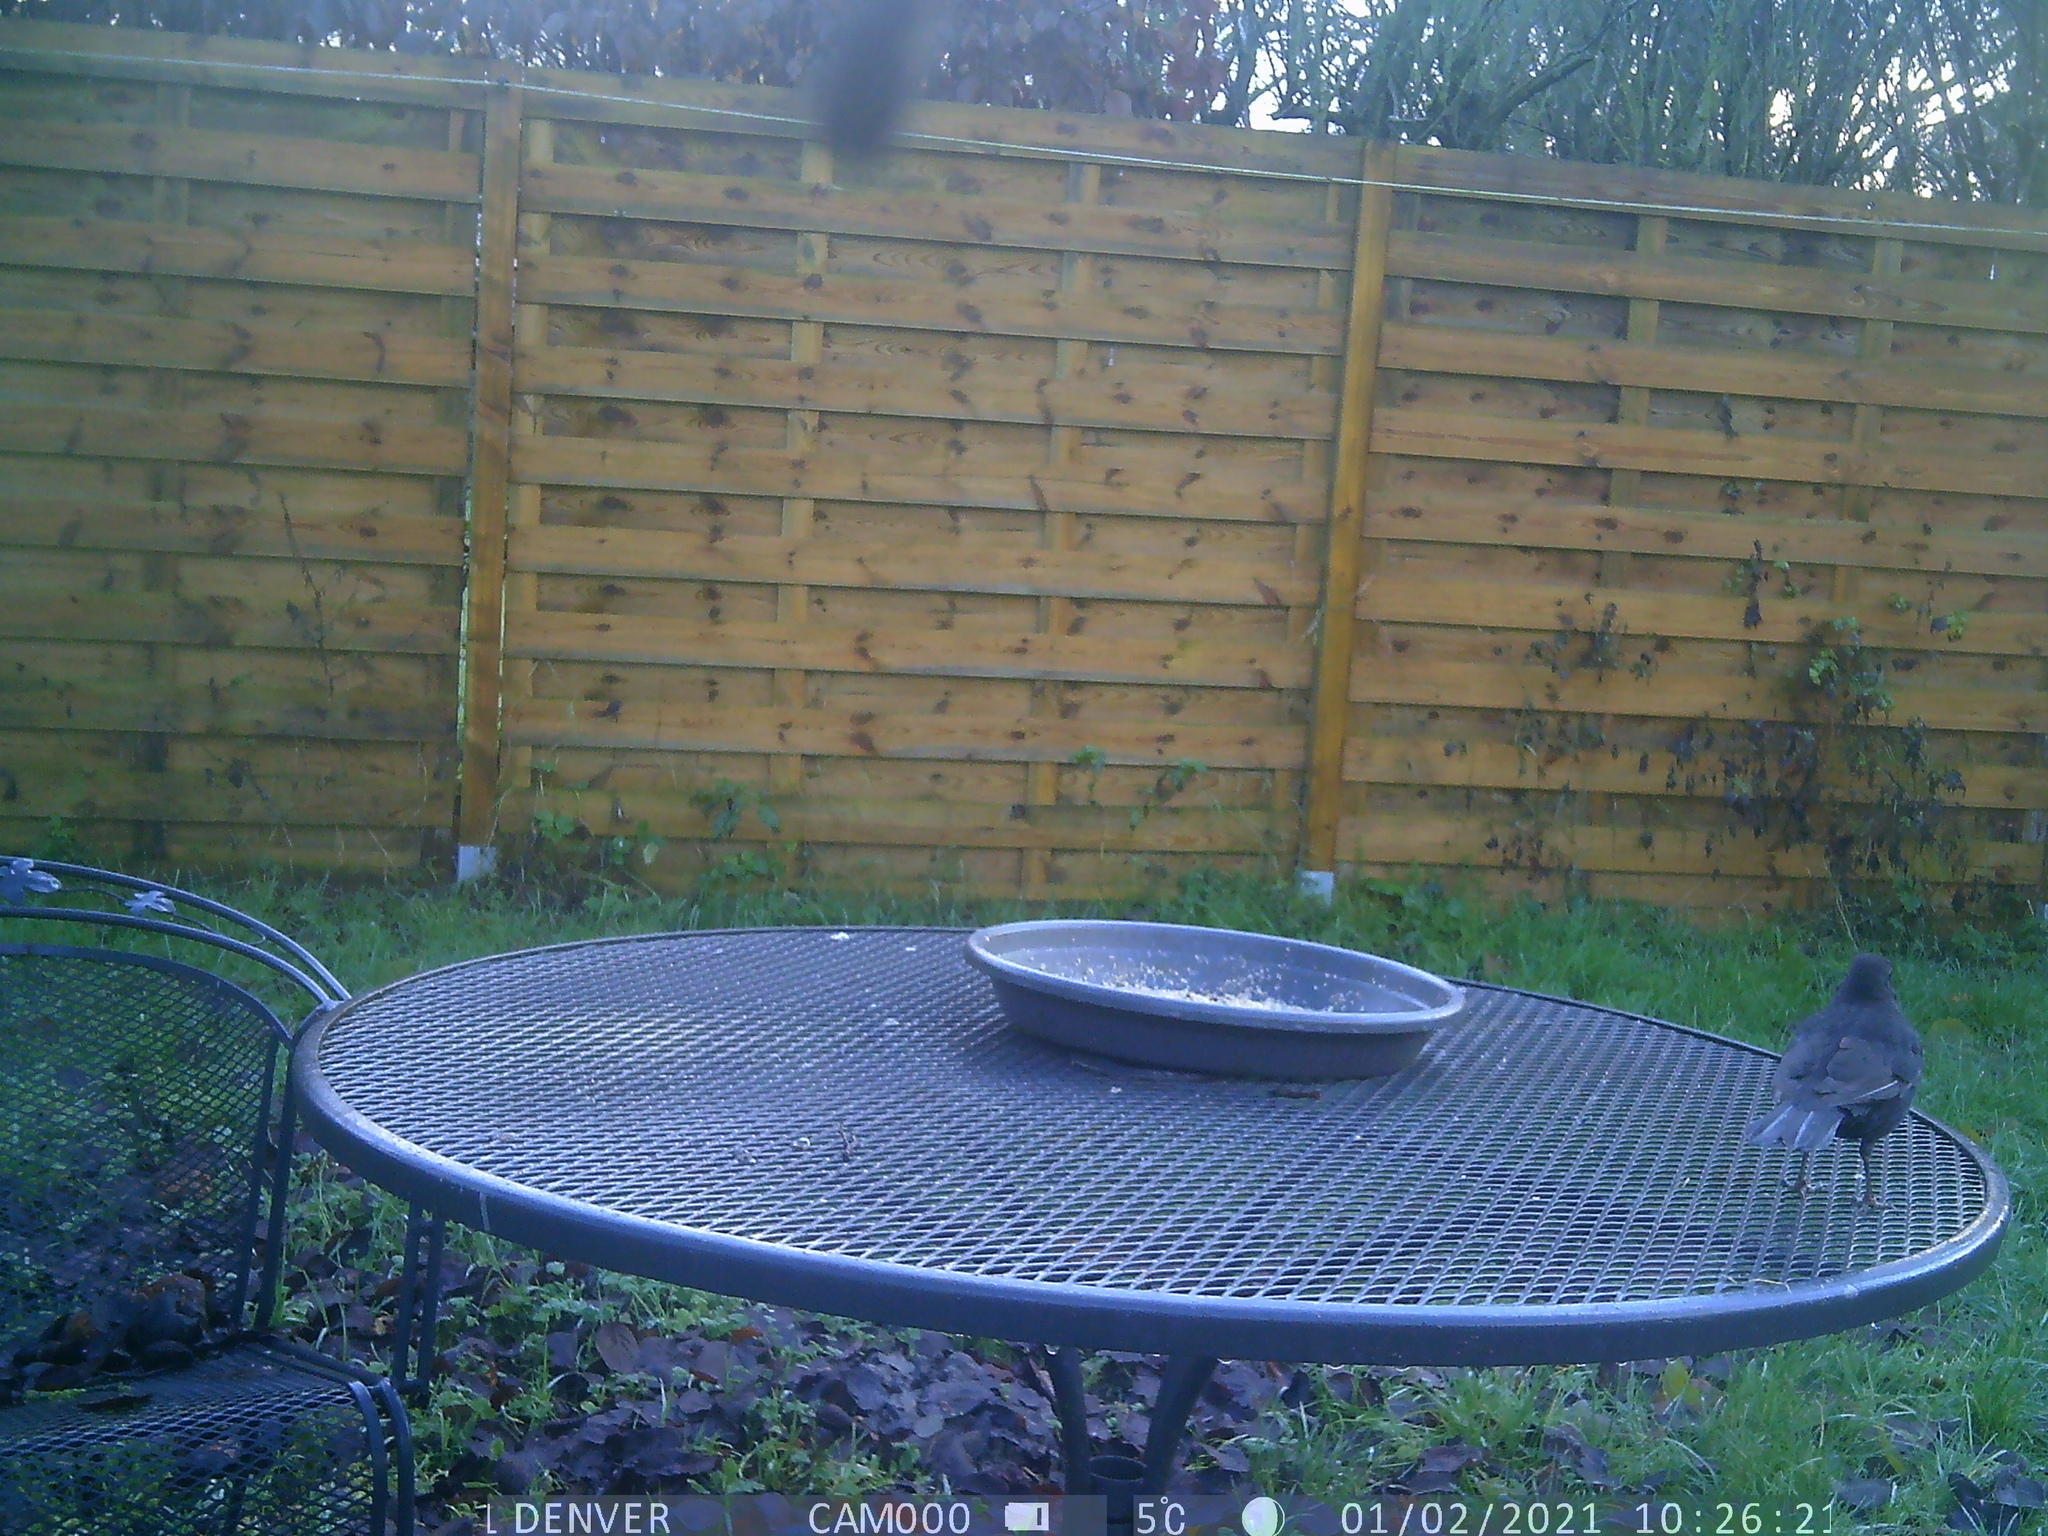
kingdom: Animalia
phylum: Chordata
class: Aves
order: Passeriformes
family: Turdidae
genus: Turdus
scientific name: Turdus merula
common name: Common blackbird
